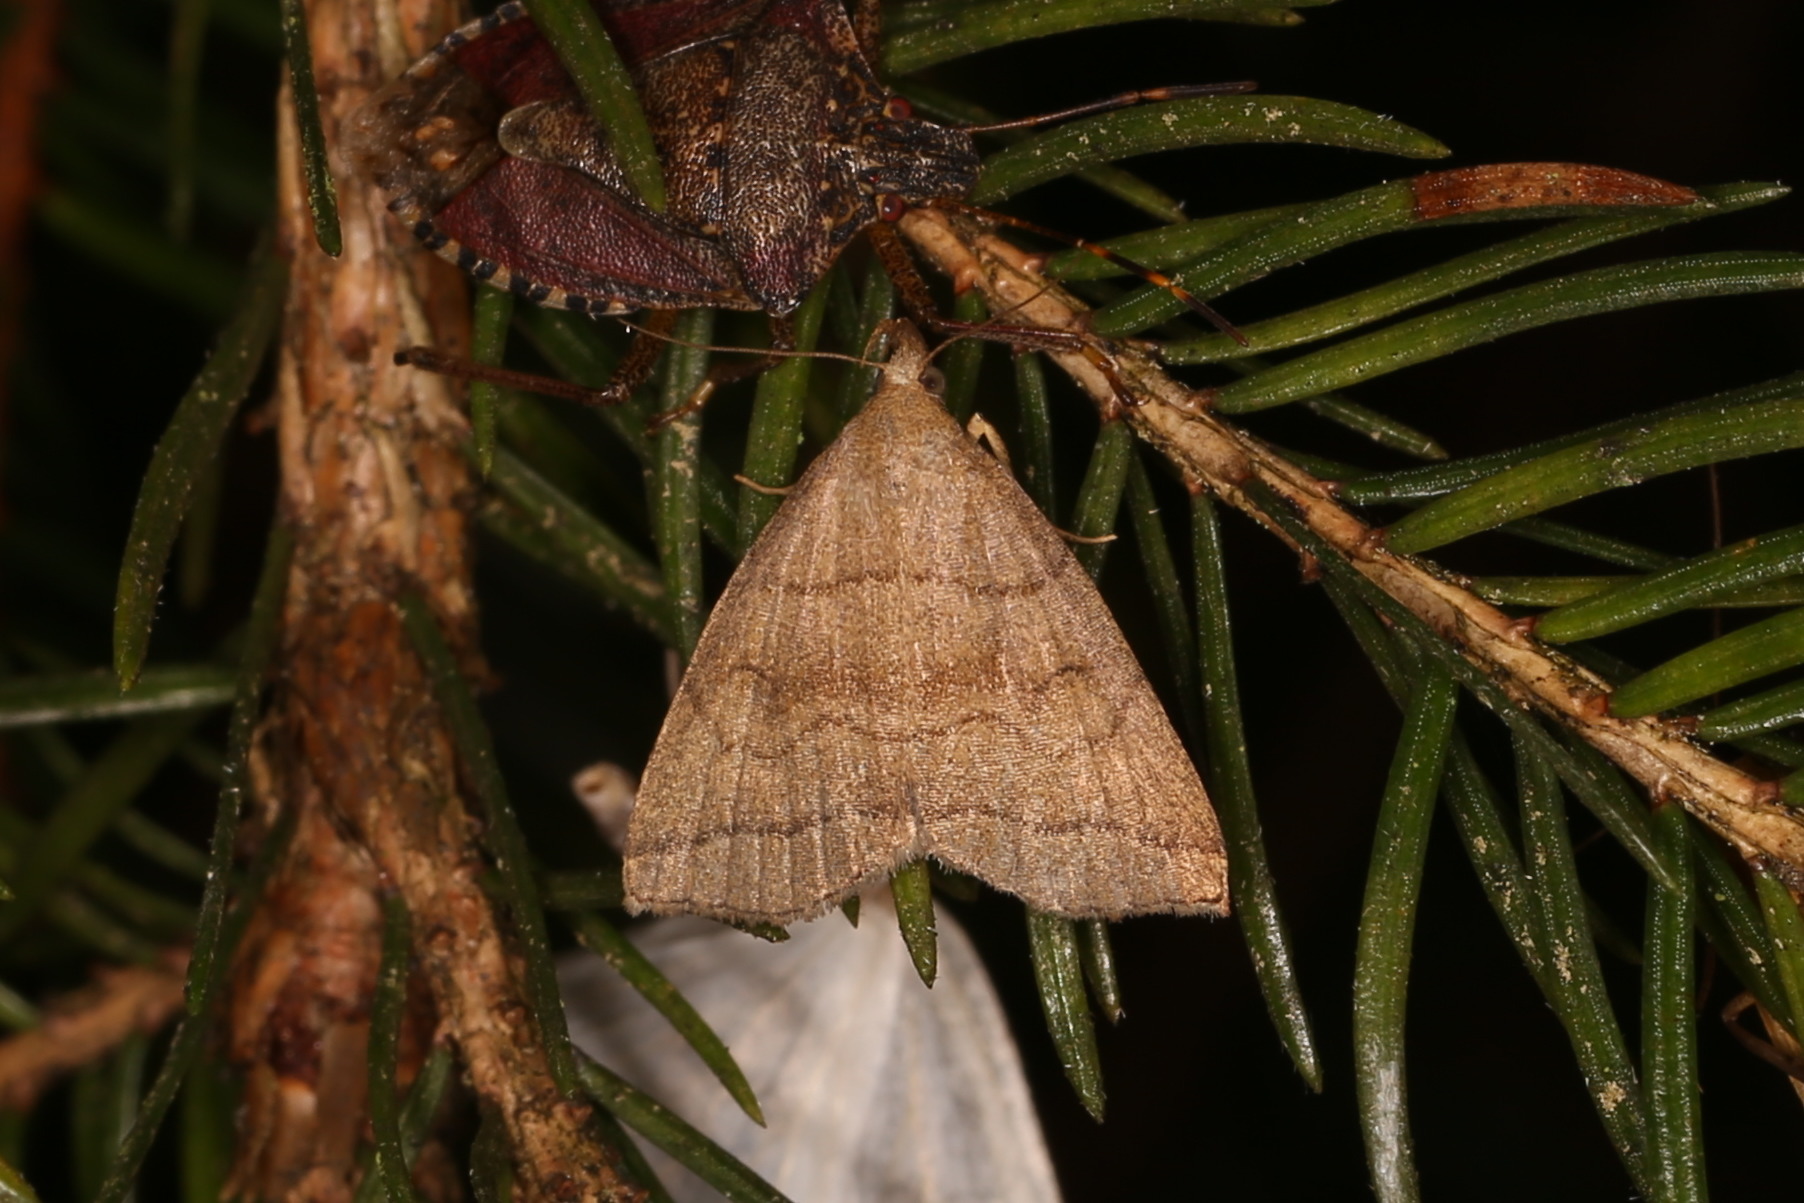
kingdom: Animalia
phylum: Arthropoda
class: Insecta
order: Lepidoptera
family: Erebidae
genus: Herminia
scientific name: Herminia tarsicrinalis
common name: Shaded fan-foot
